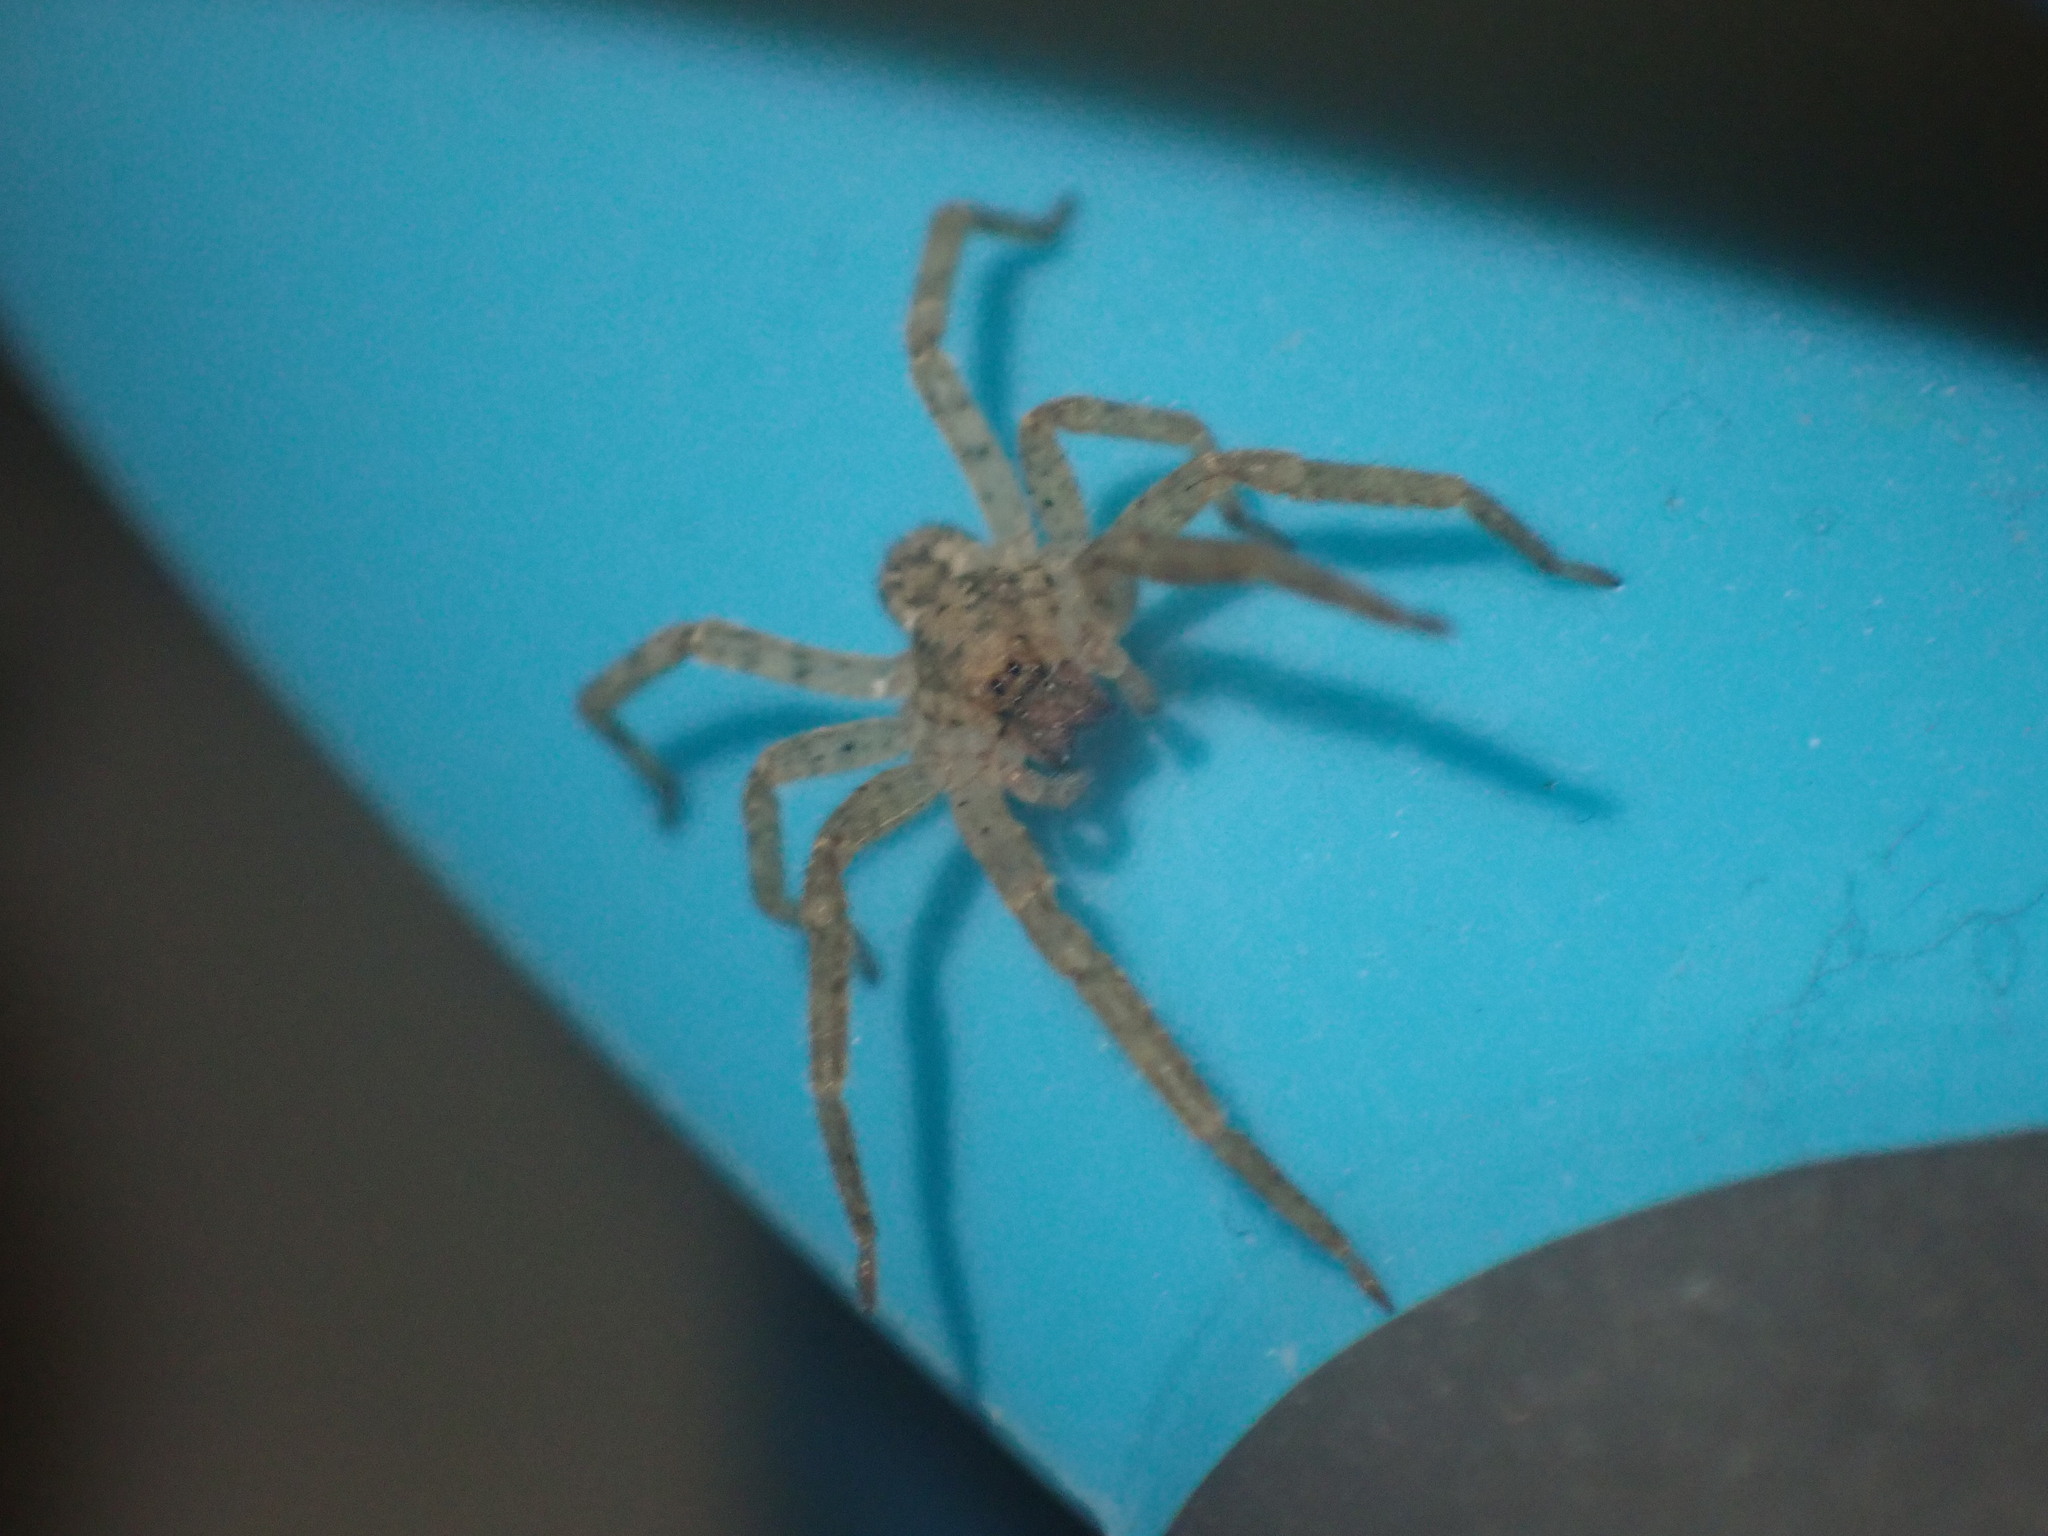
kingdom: Animalia
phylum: Arthropoda
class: Arachnida
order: Araneae
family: Zoropsidae
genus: Zoropsis
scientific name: Zoropsis spinimana
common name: Zoropsid spider
